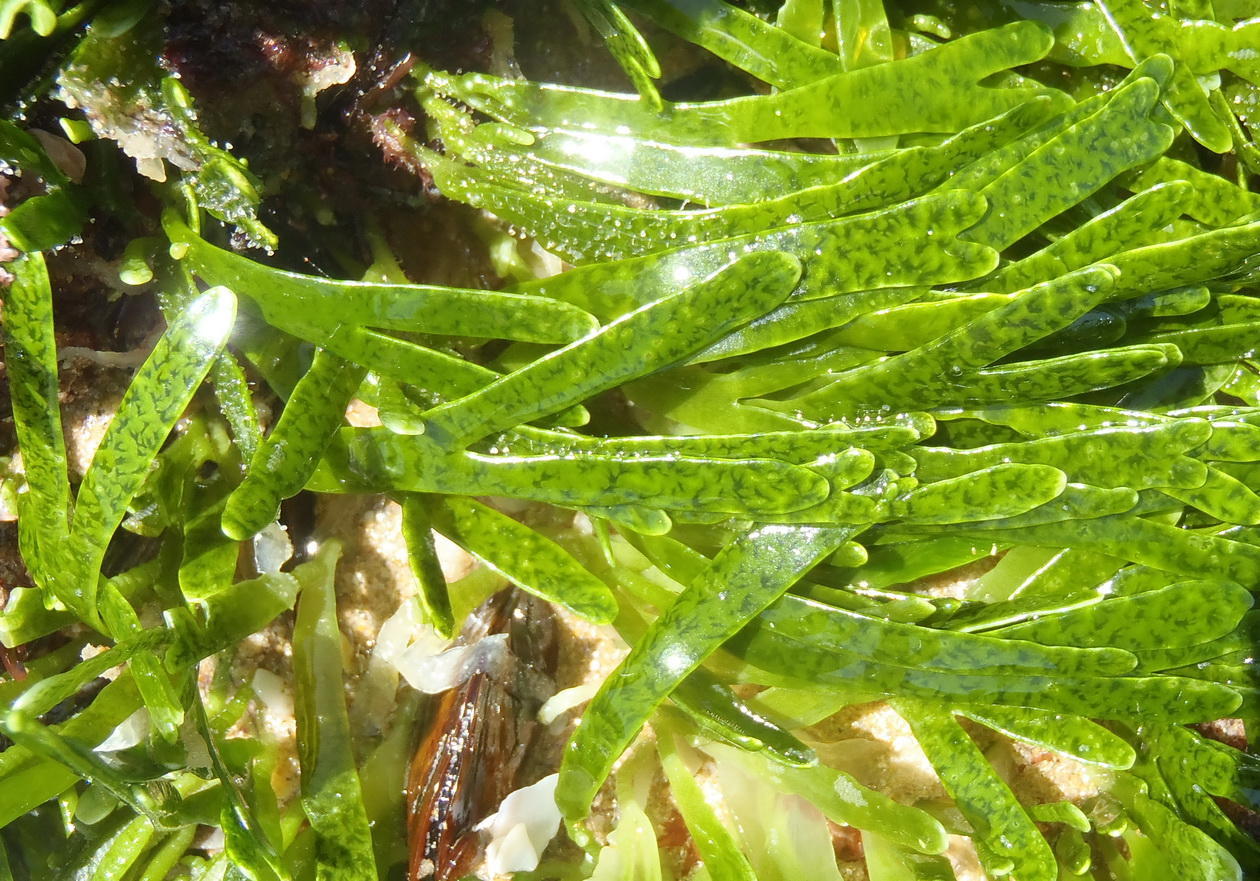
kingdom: Plantae
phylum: Chlorophyta
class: Ulvophyceae
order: Bryopsidales
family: Caulerpaceae
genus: Caulerpa
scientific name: Caulerpa filiformis
